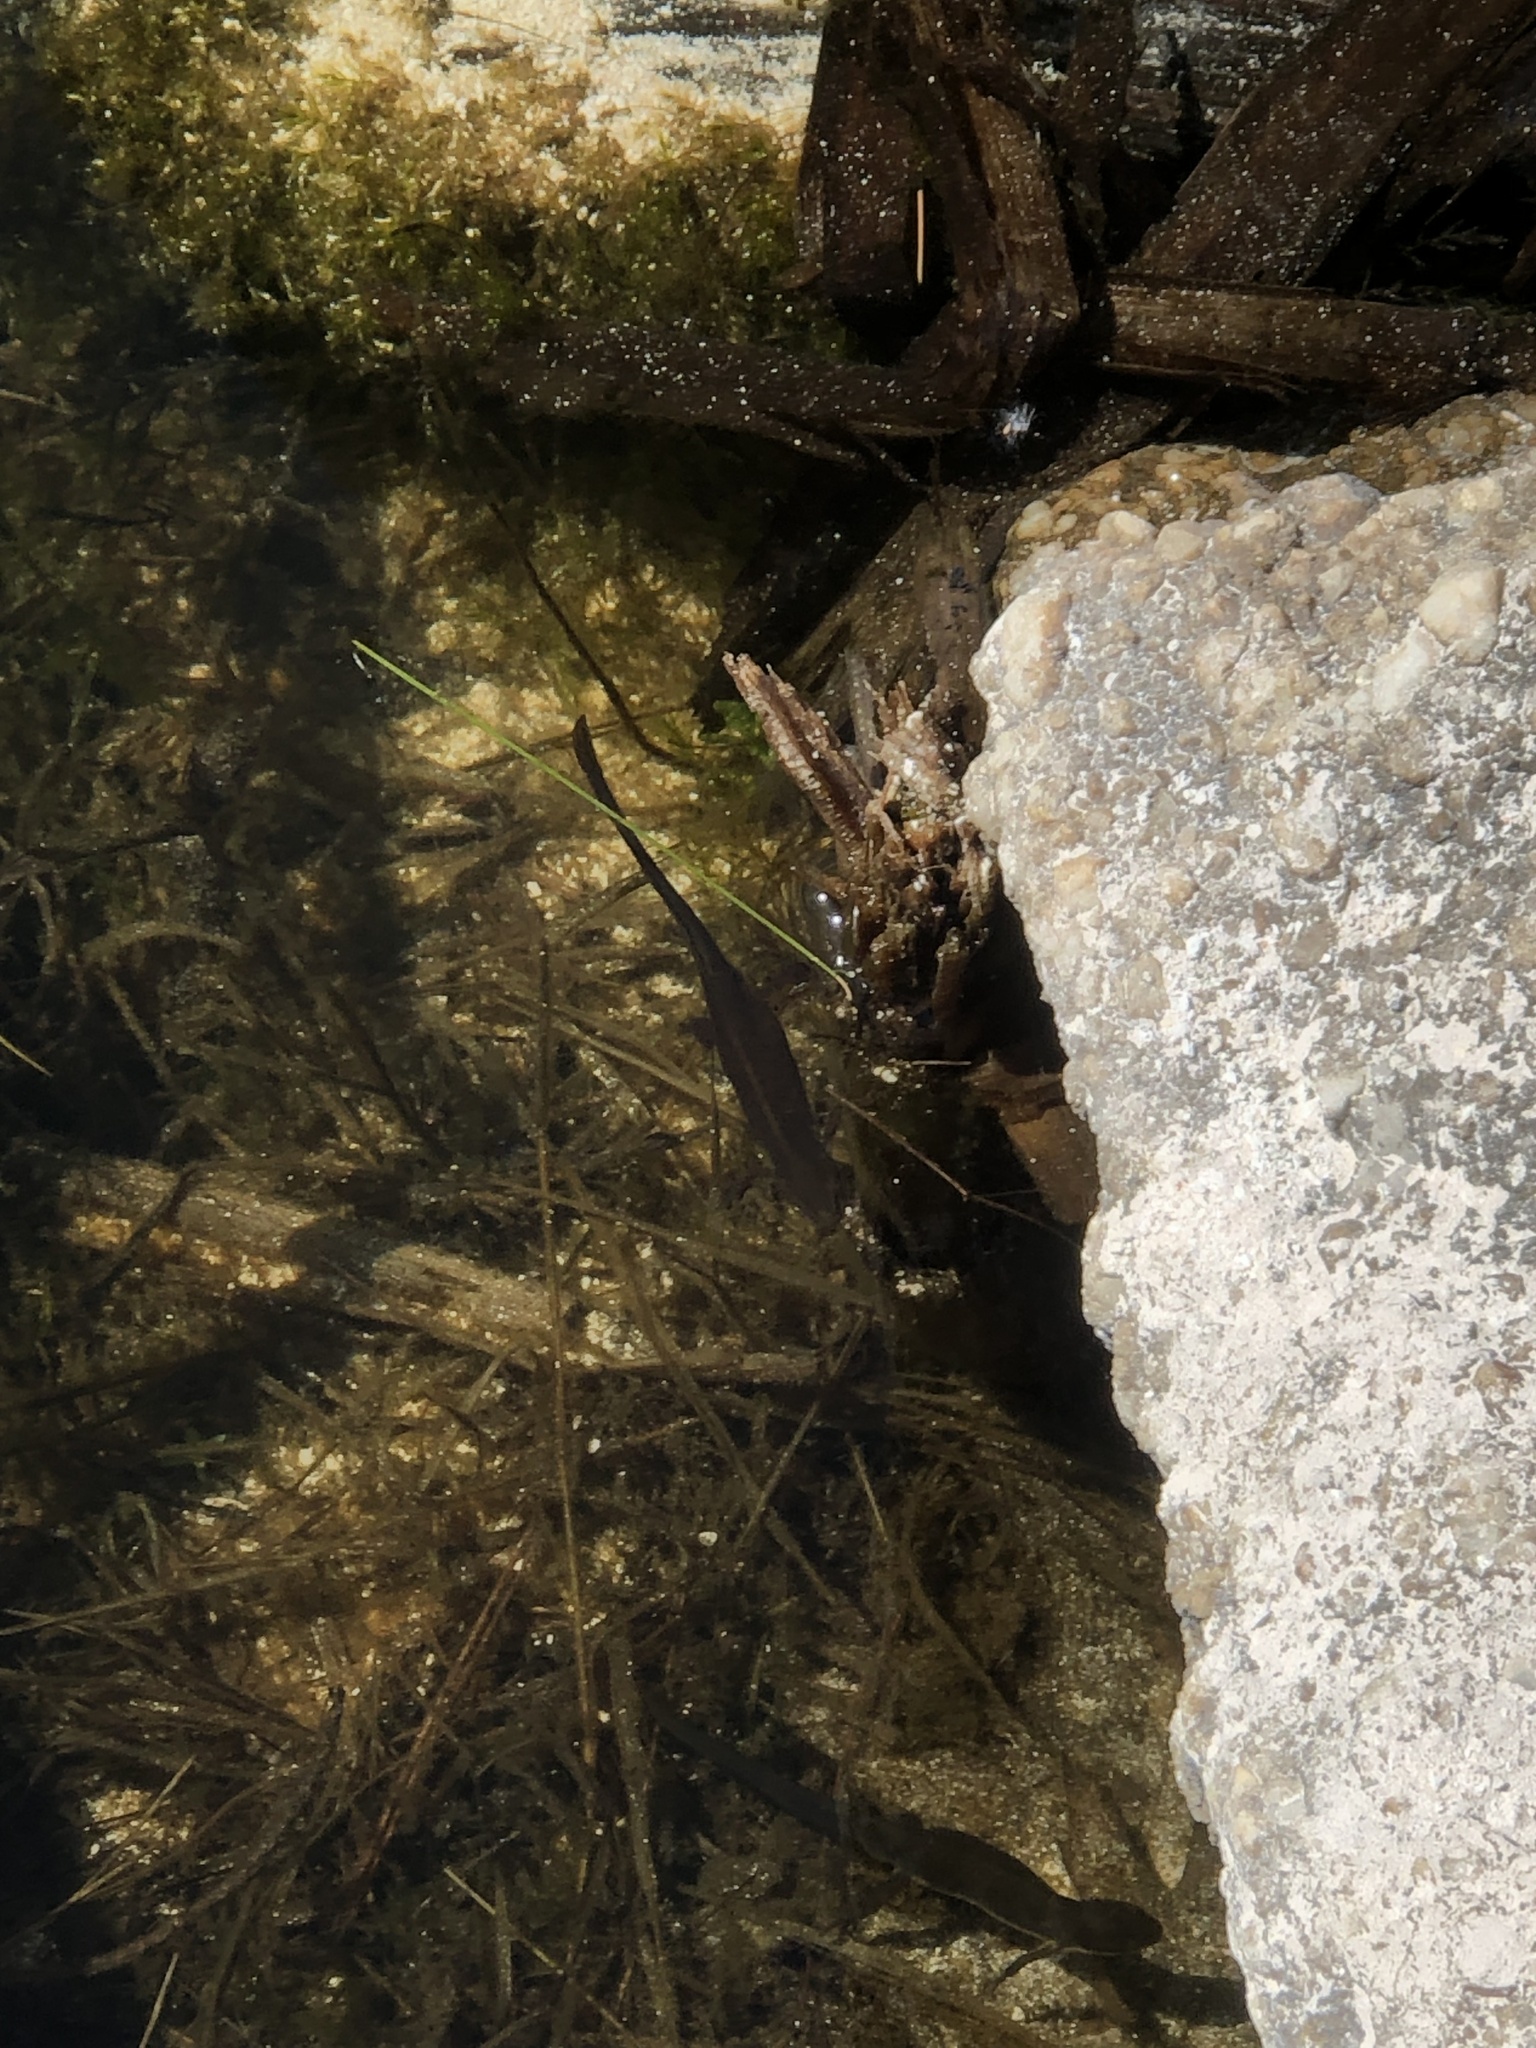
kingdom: Animalia
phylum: Chordata
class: Amphibia
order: Caudata
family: Salamandridae
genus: Notophthalmus
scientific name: Notophthalmus viridescens
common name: Eastern newt
